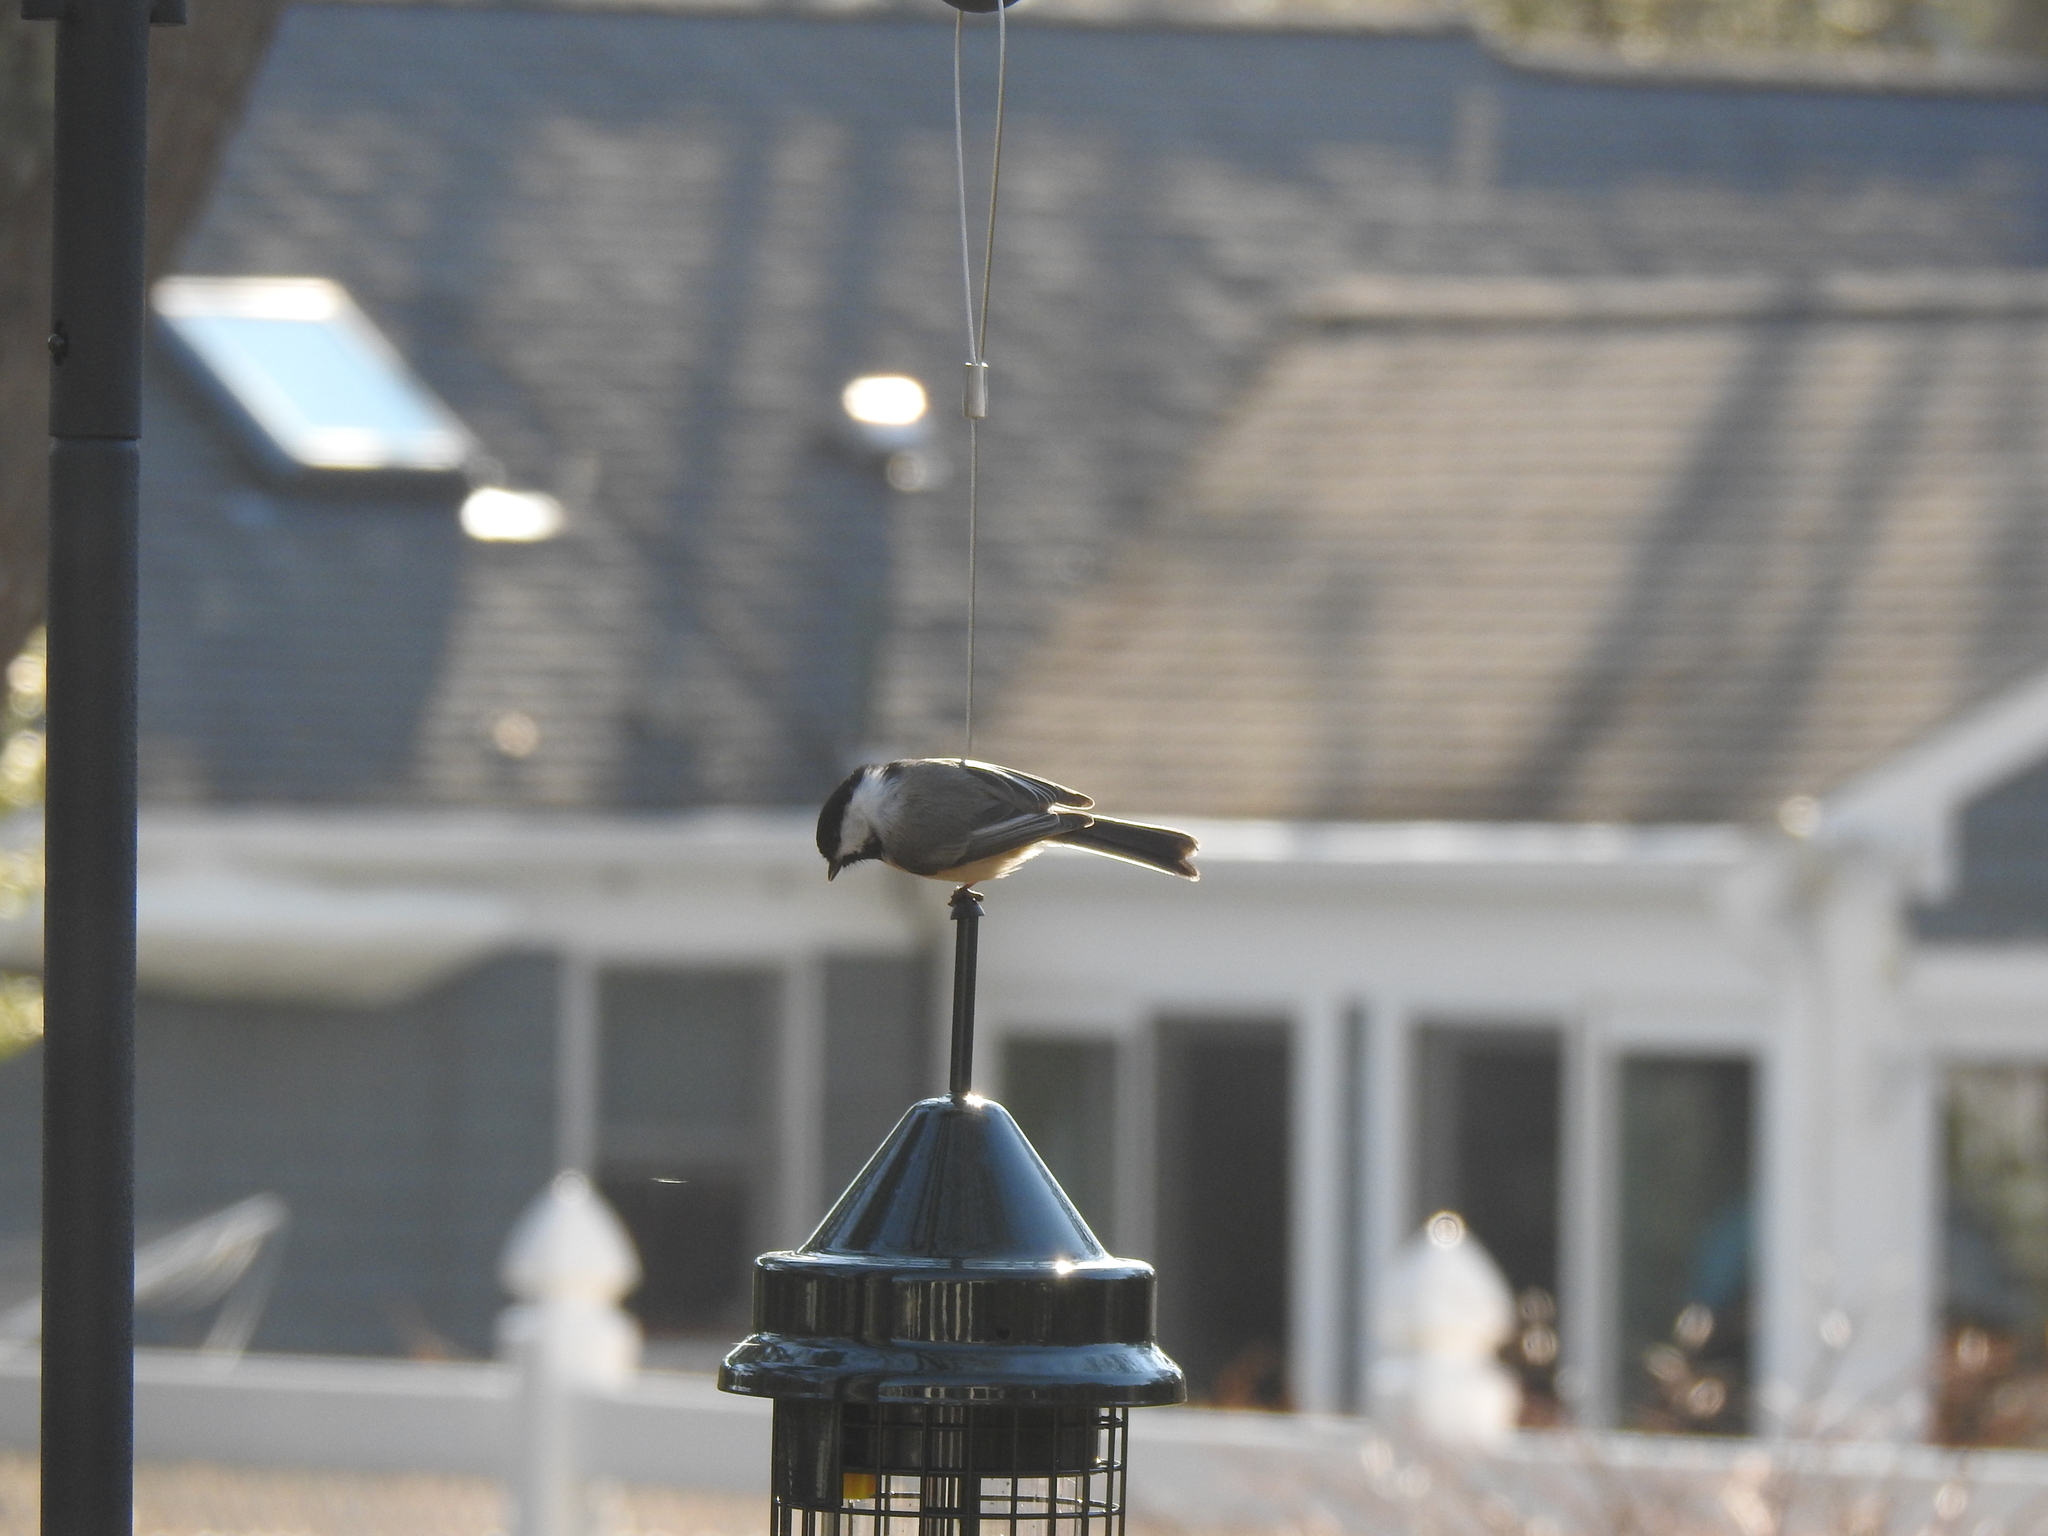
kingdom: Animalia
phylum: Chordata
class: Aves
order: Passeriformes
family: Paridae
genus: Poecile
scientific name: Poecile atricapillus
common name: Black-capped chickadee
